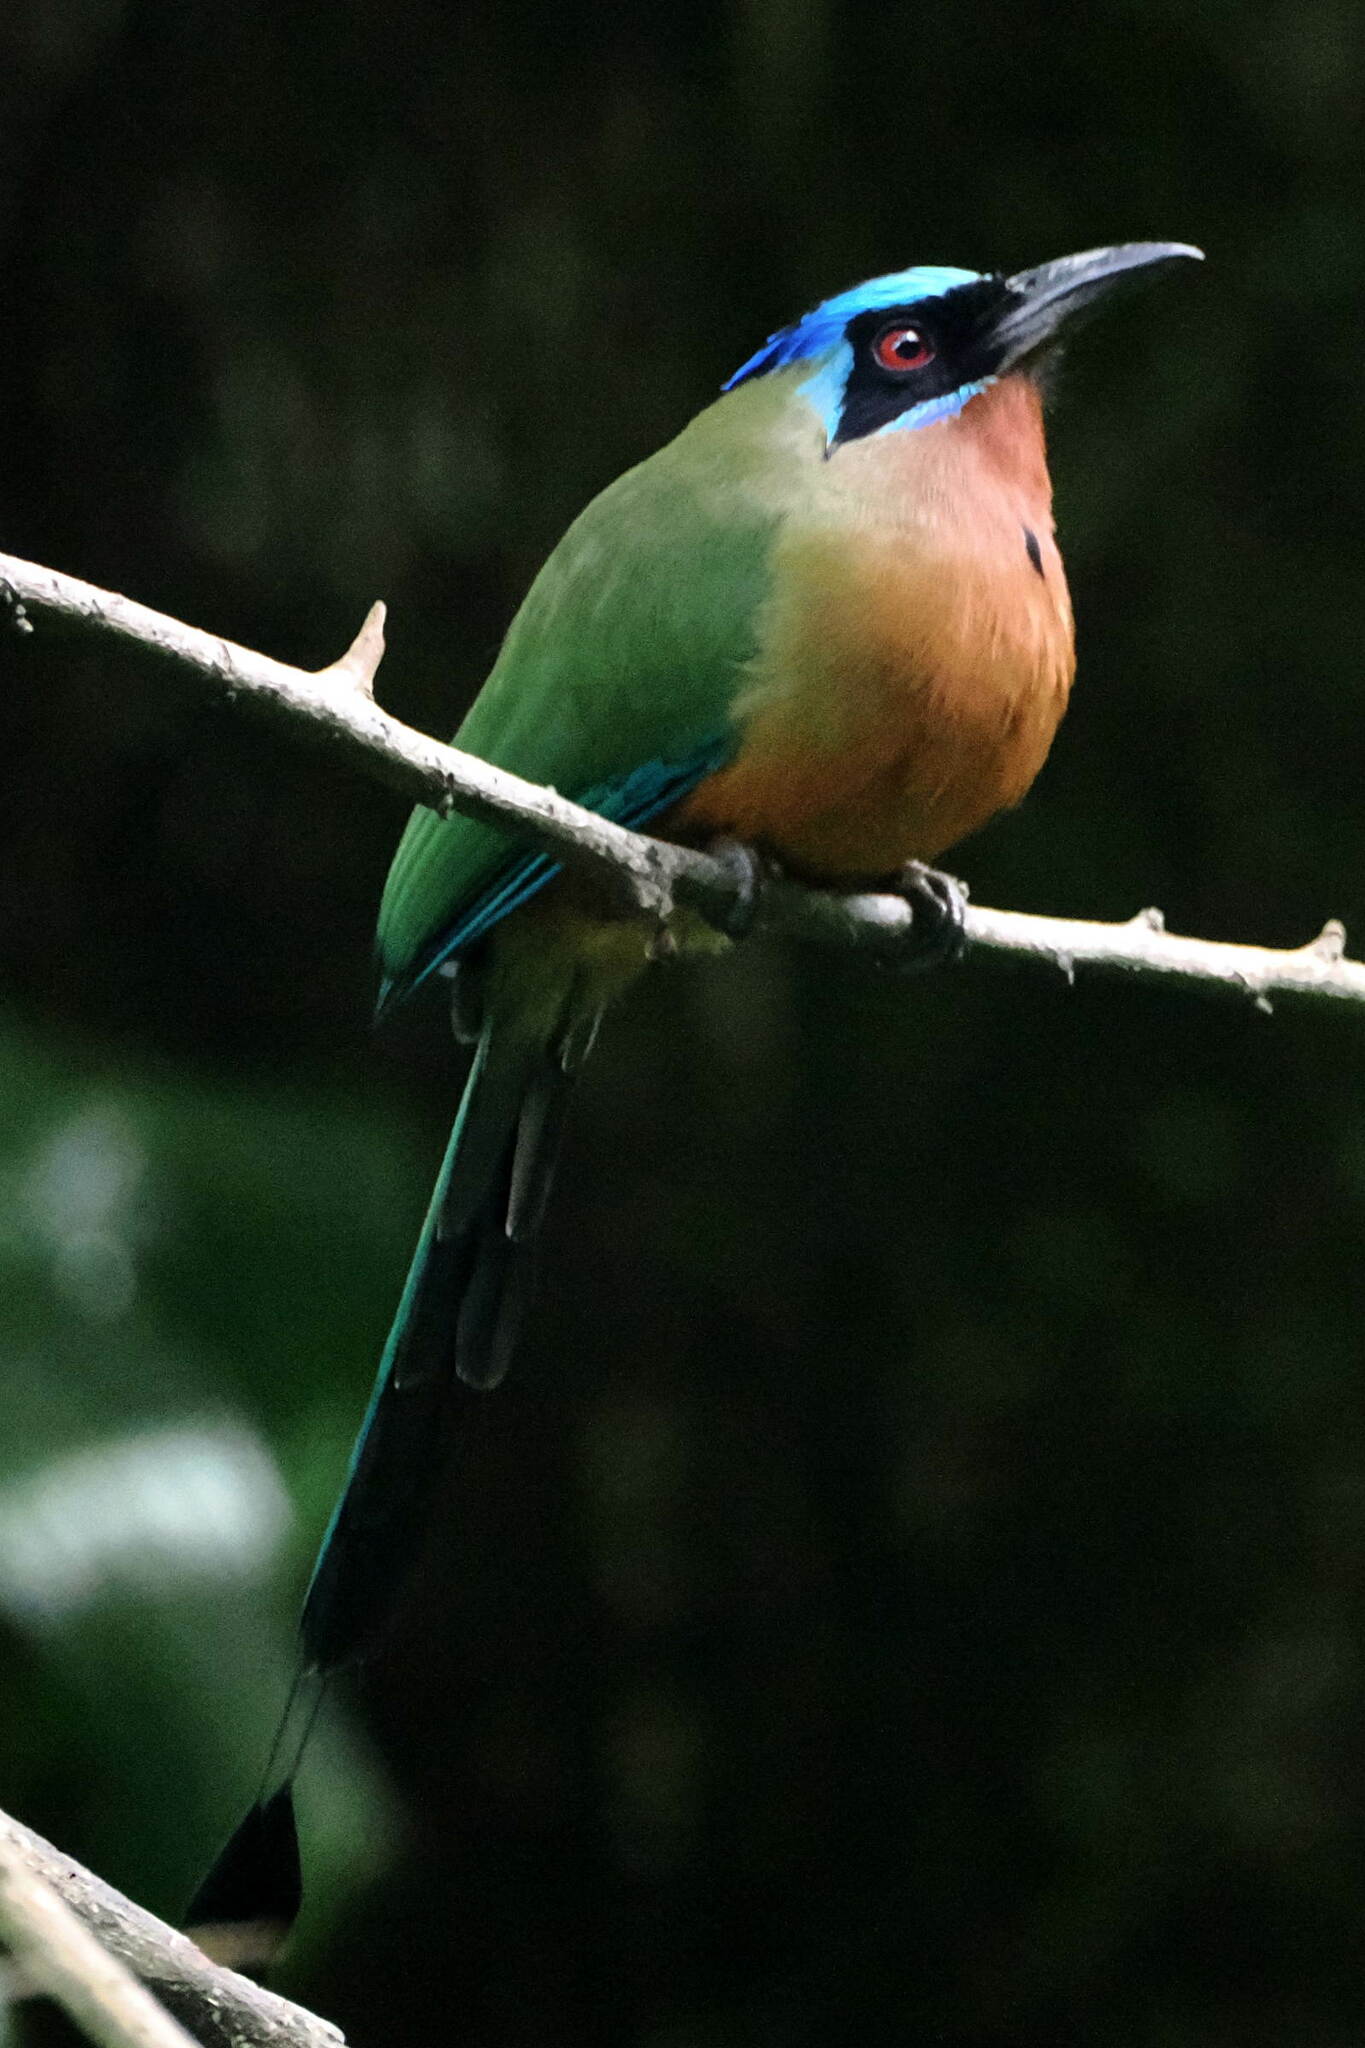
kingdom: Animalia
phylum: Chordata
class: Aves
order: Coraciiformes
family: Momotidae
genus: Momotus
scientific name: Momotus bahamensis
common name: Trinidad motmot
